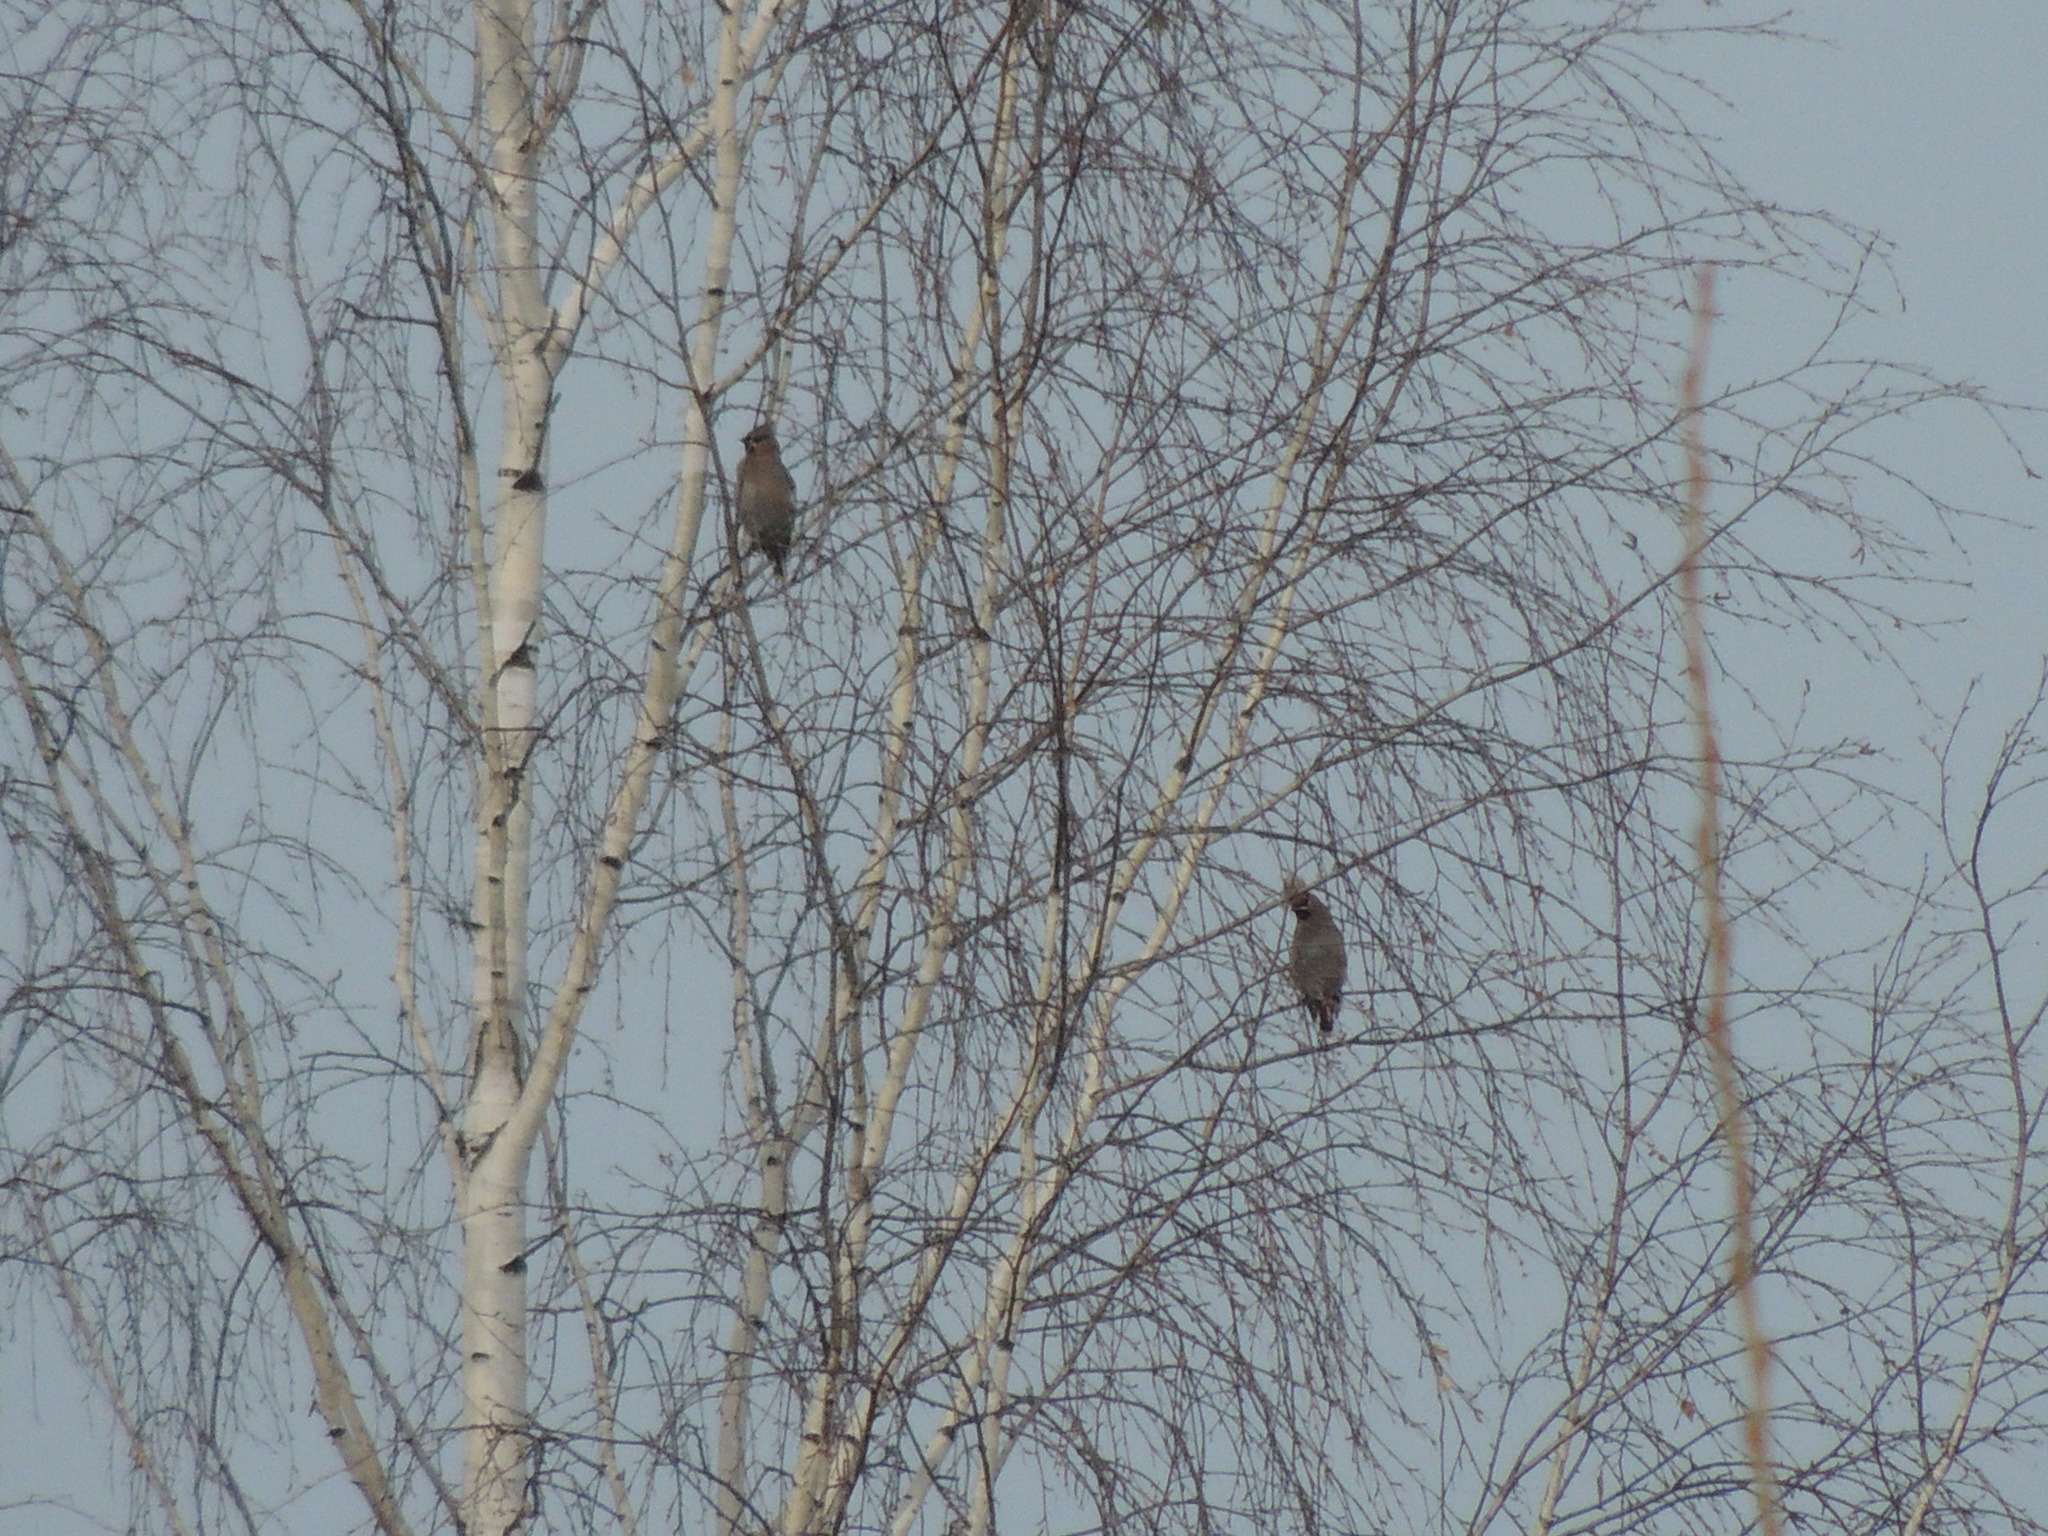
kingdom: Animalia
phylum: Chordata
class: Aves
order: Passeriformes
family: Bombycillidae
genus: Bombycilla
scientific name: Bombycilla garrulus
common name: Bohemian waxwing
